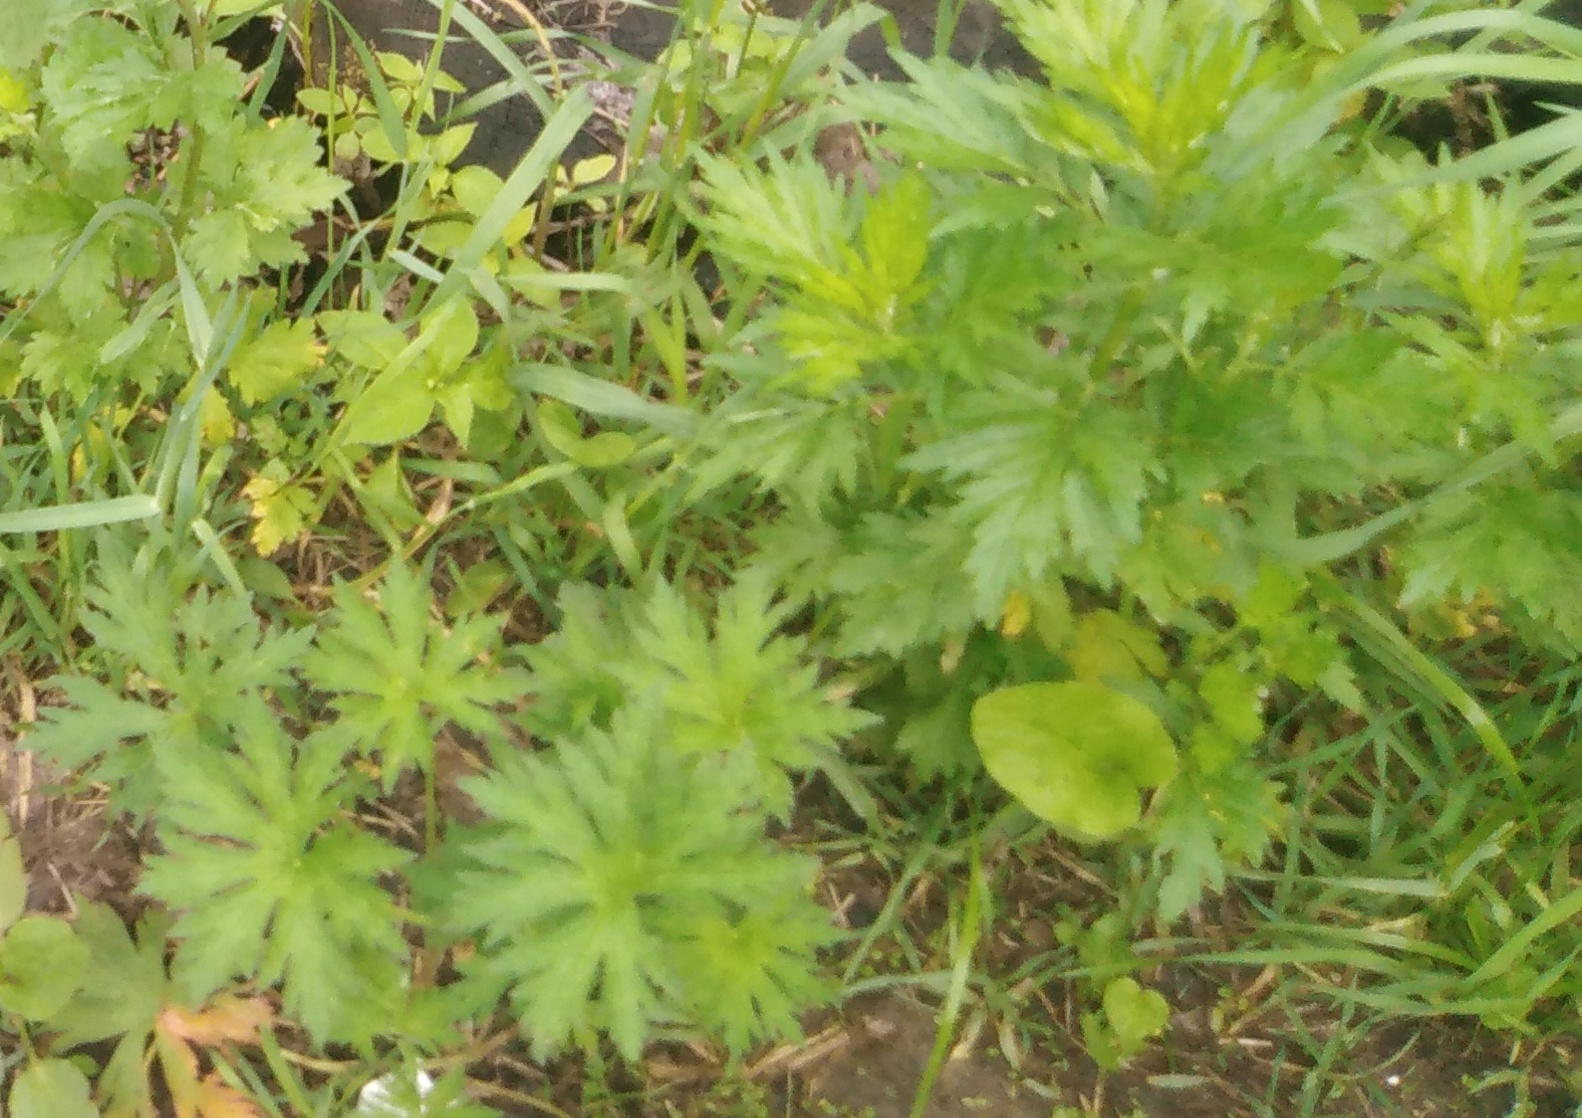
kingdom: Plantae
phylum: Tracheophyta
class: Magnoliopsida
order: Asterales
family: Asteraceae
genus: Artemisia
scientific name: Artemisia vulgaris
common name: Mugwort
